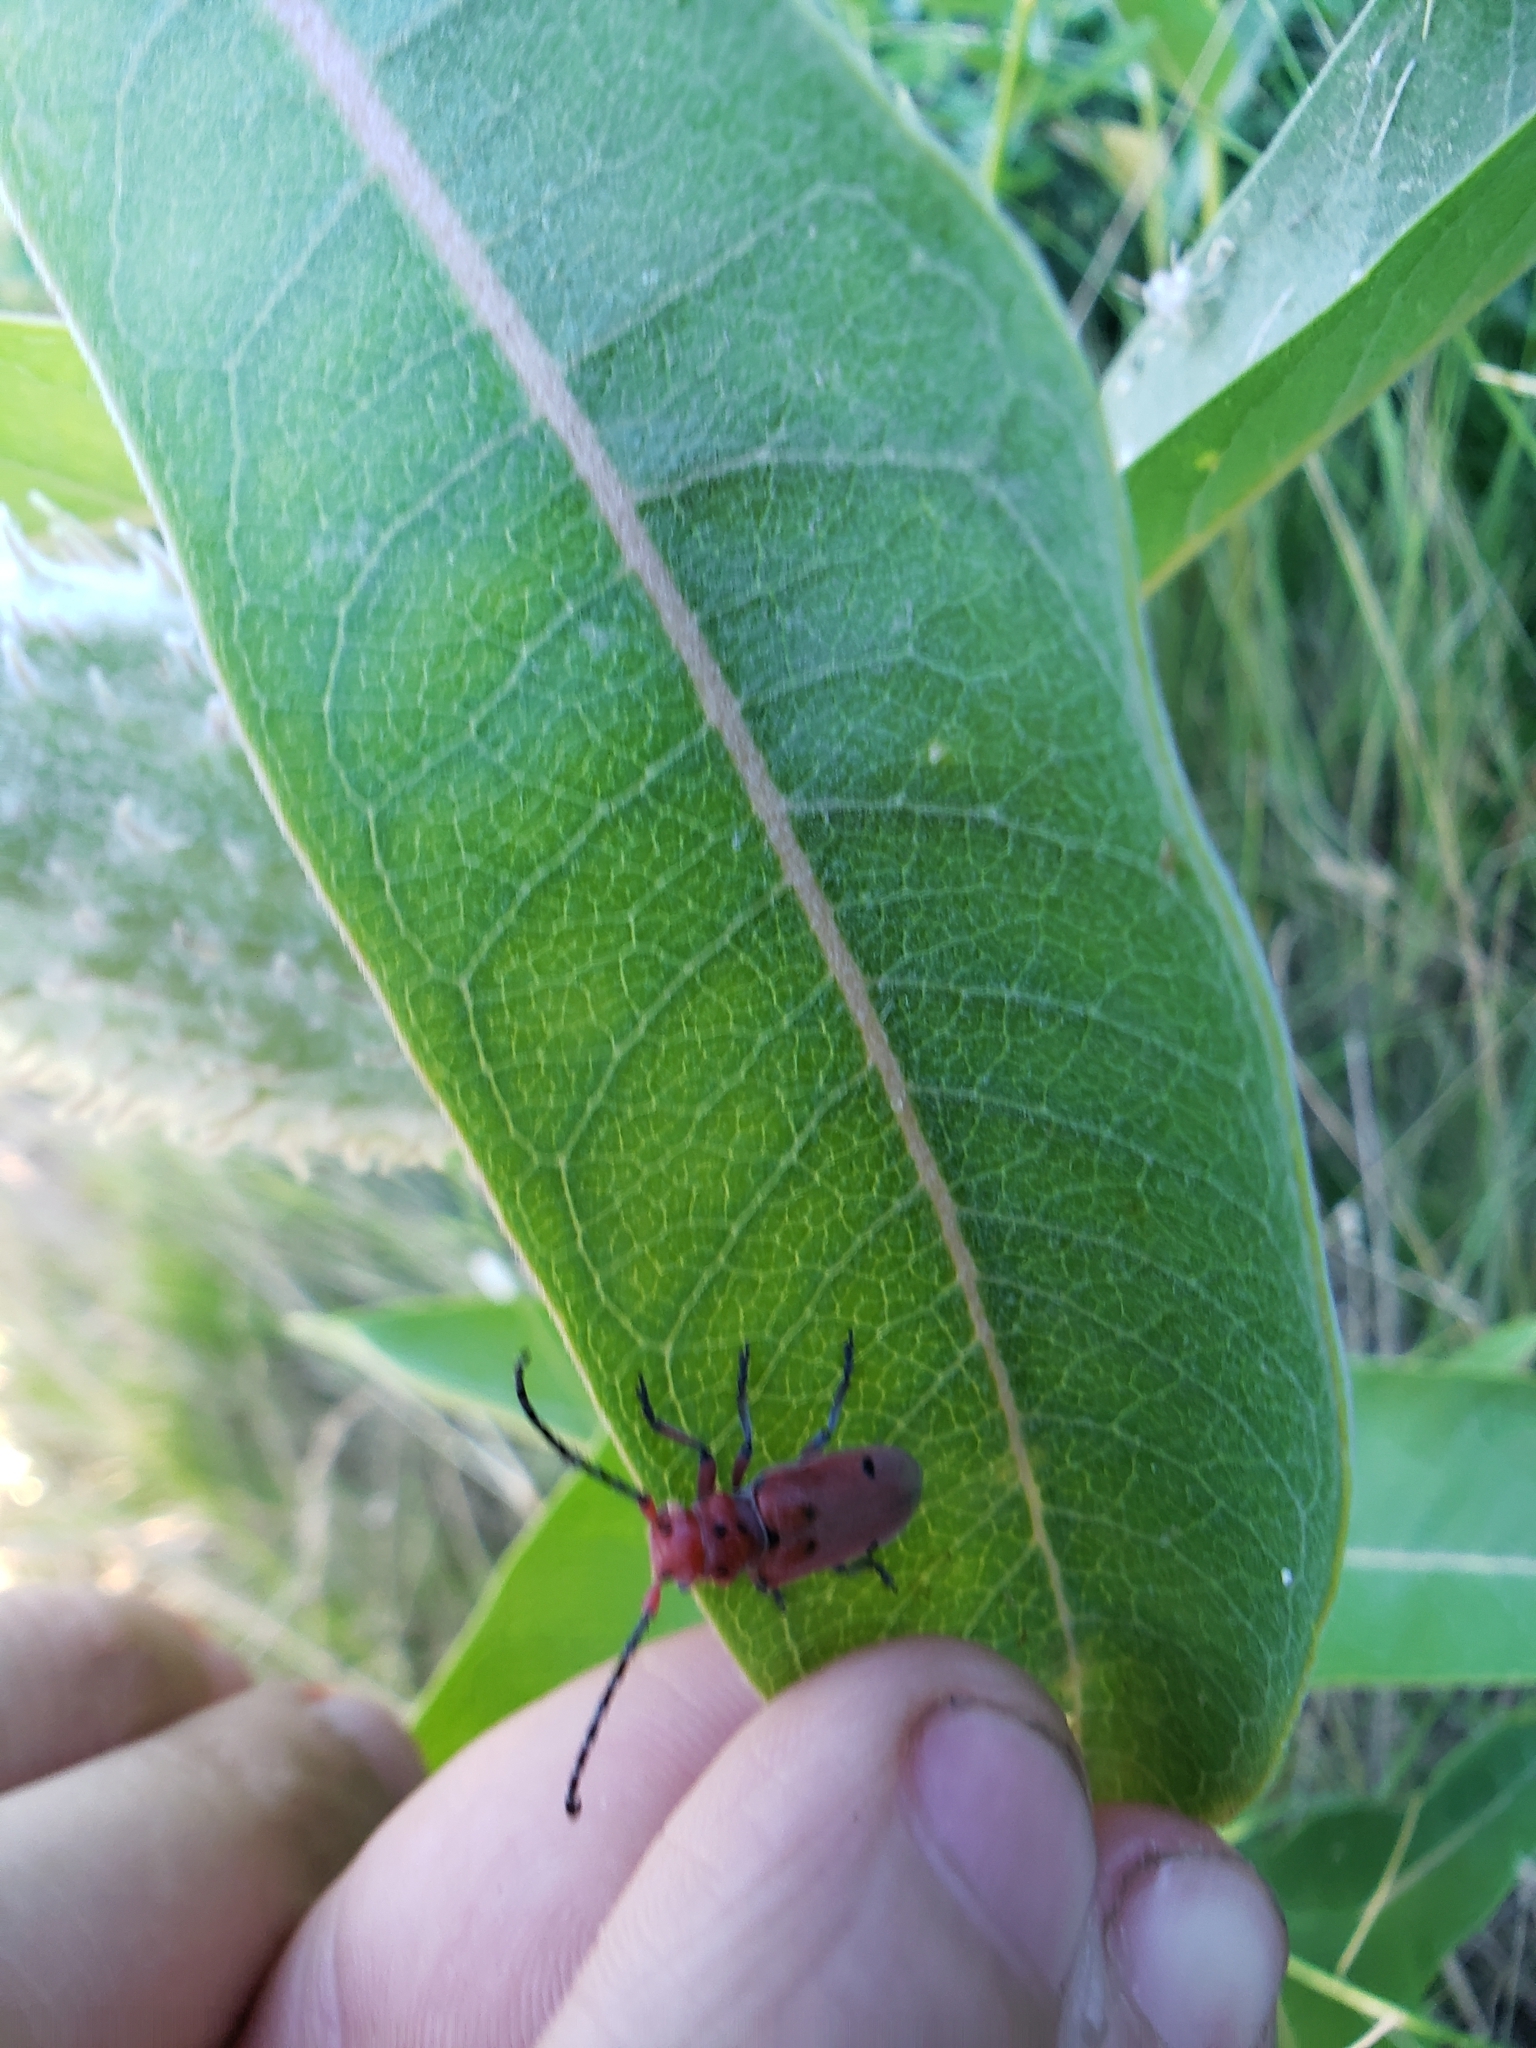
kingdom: Animalia
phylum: Arthropoda
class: Insecta
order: Coleoptera
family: Cerambycidae
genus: Tetraopes
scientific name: Tetraopes femoratus
